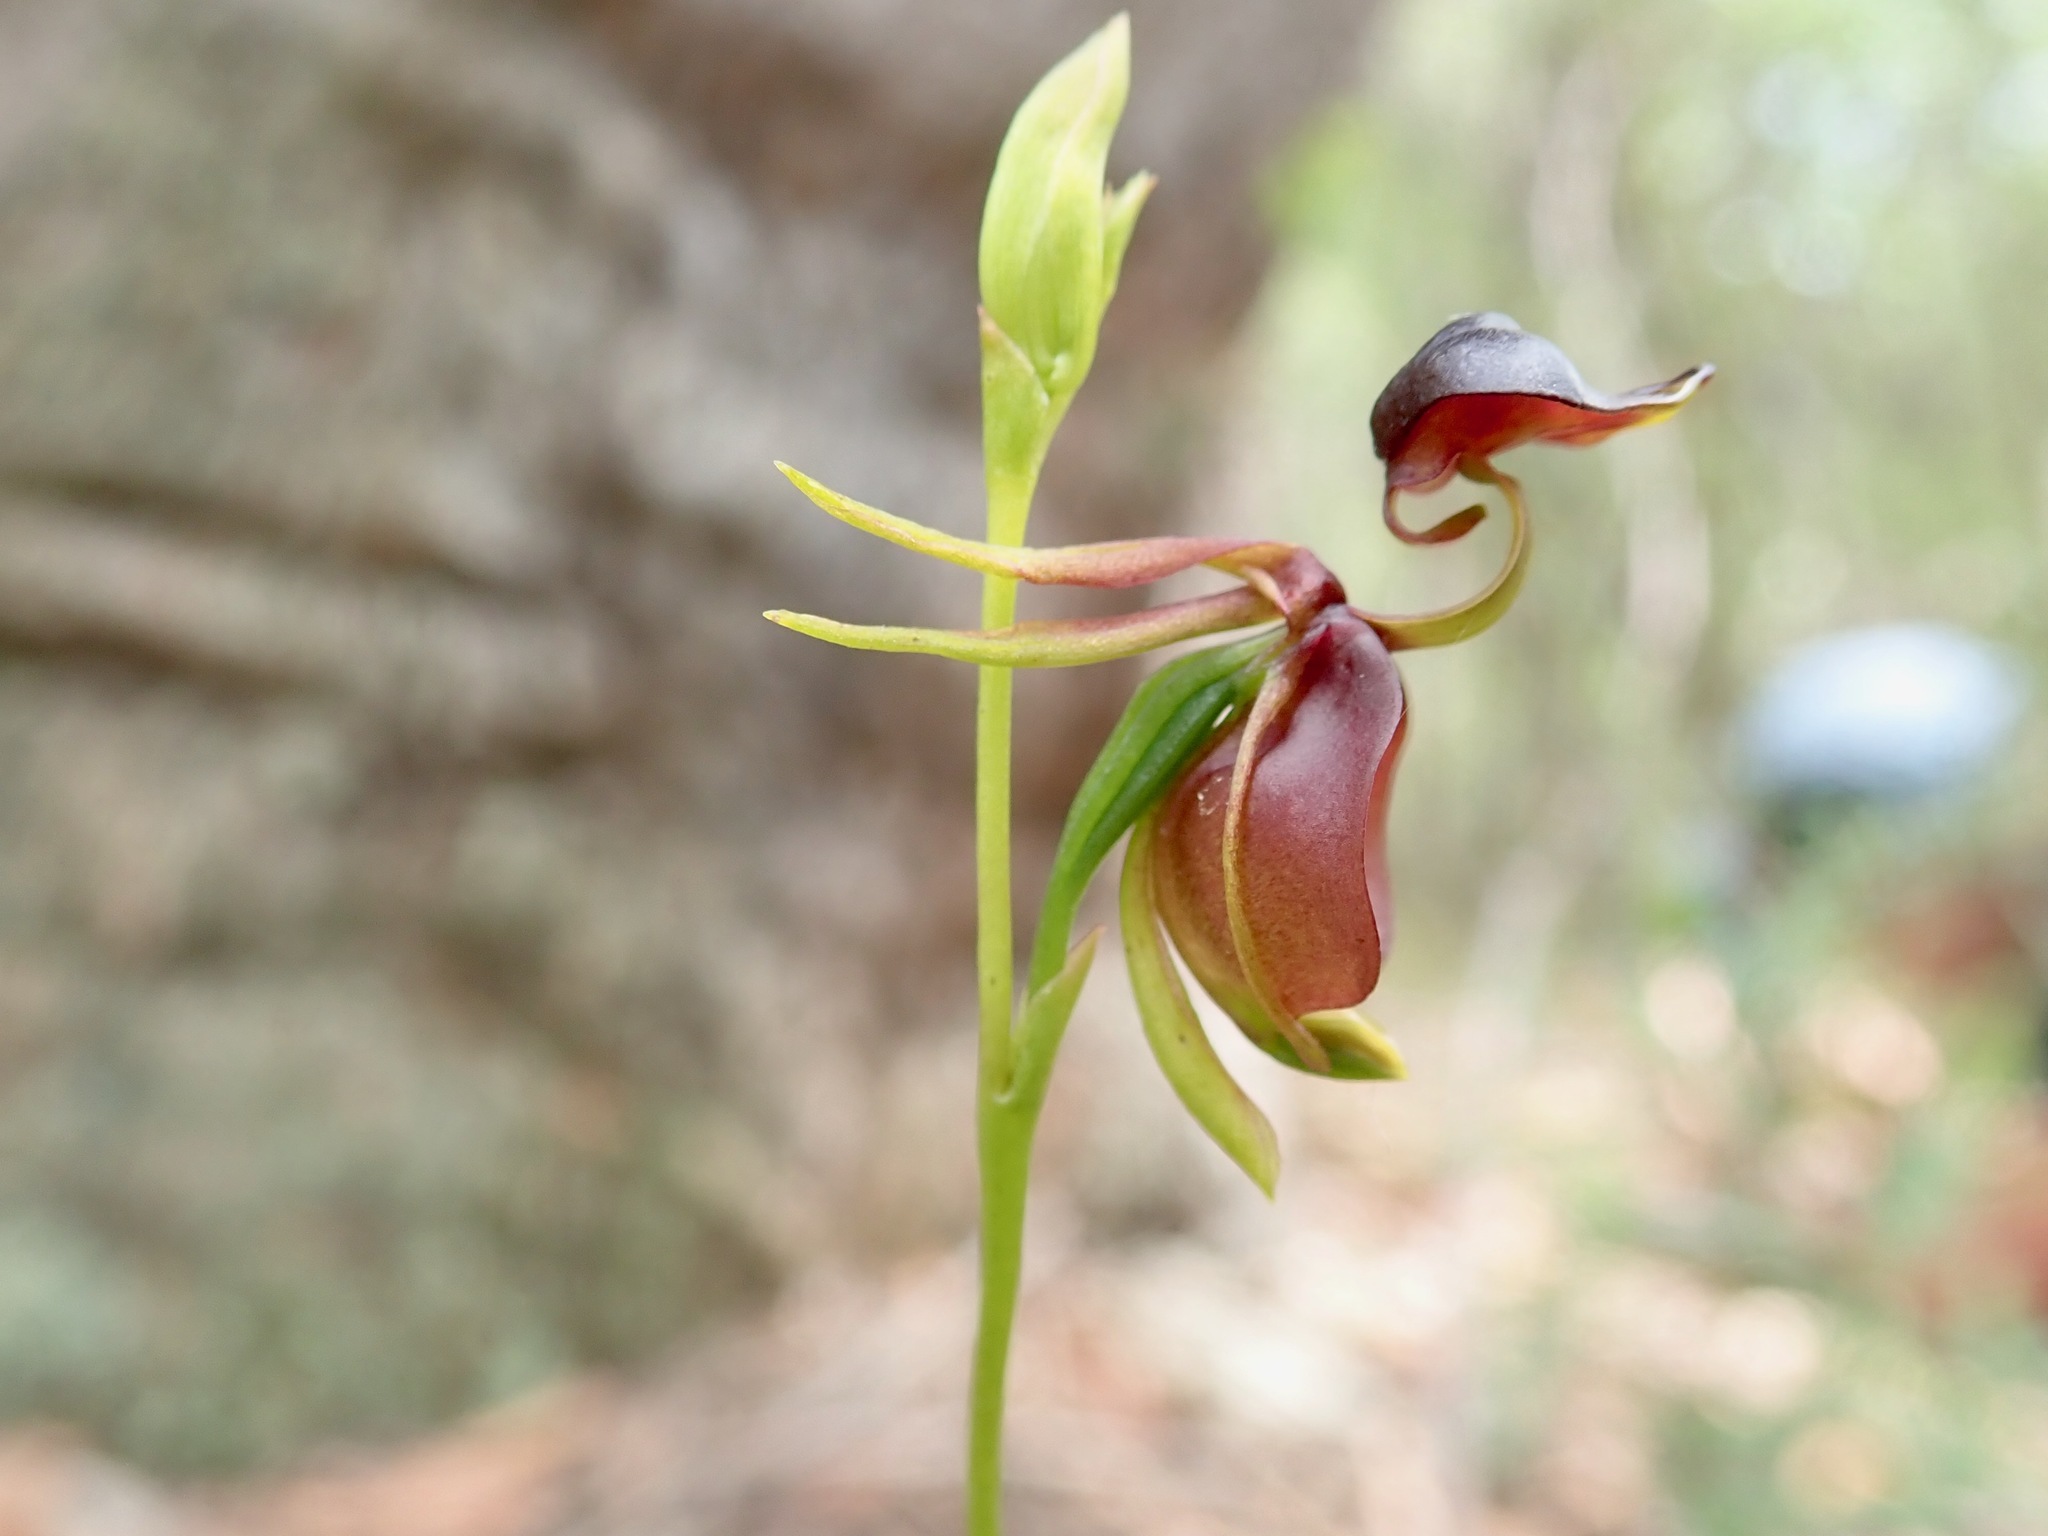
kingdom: Plantae
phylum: Tracheophyta
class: Liliopsida
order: Asparagales
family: Orchidaceae
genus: Caleana
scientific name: Caleana major
